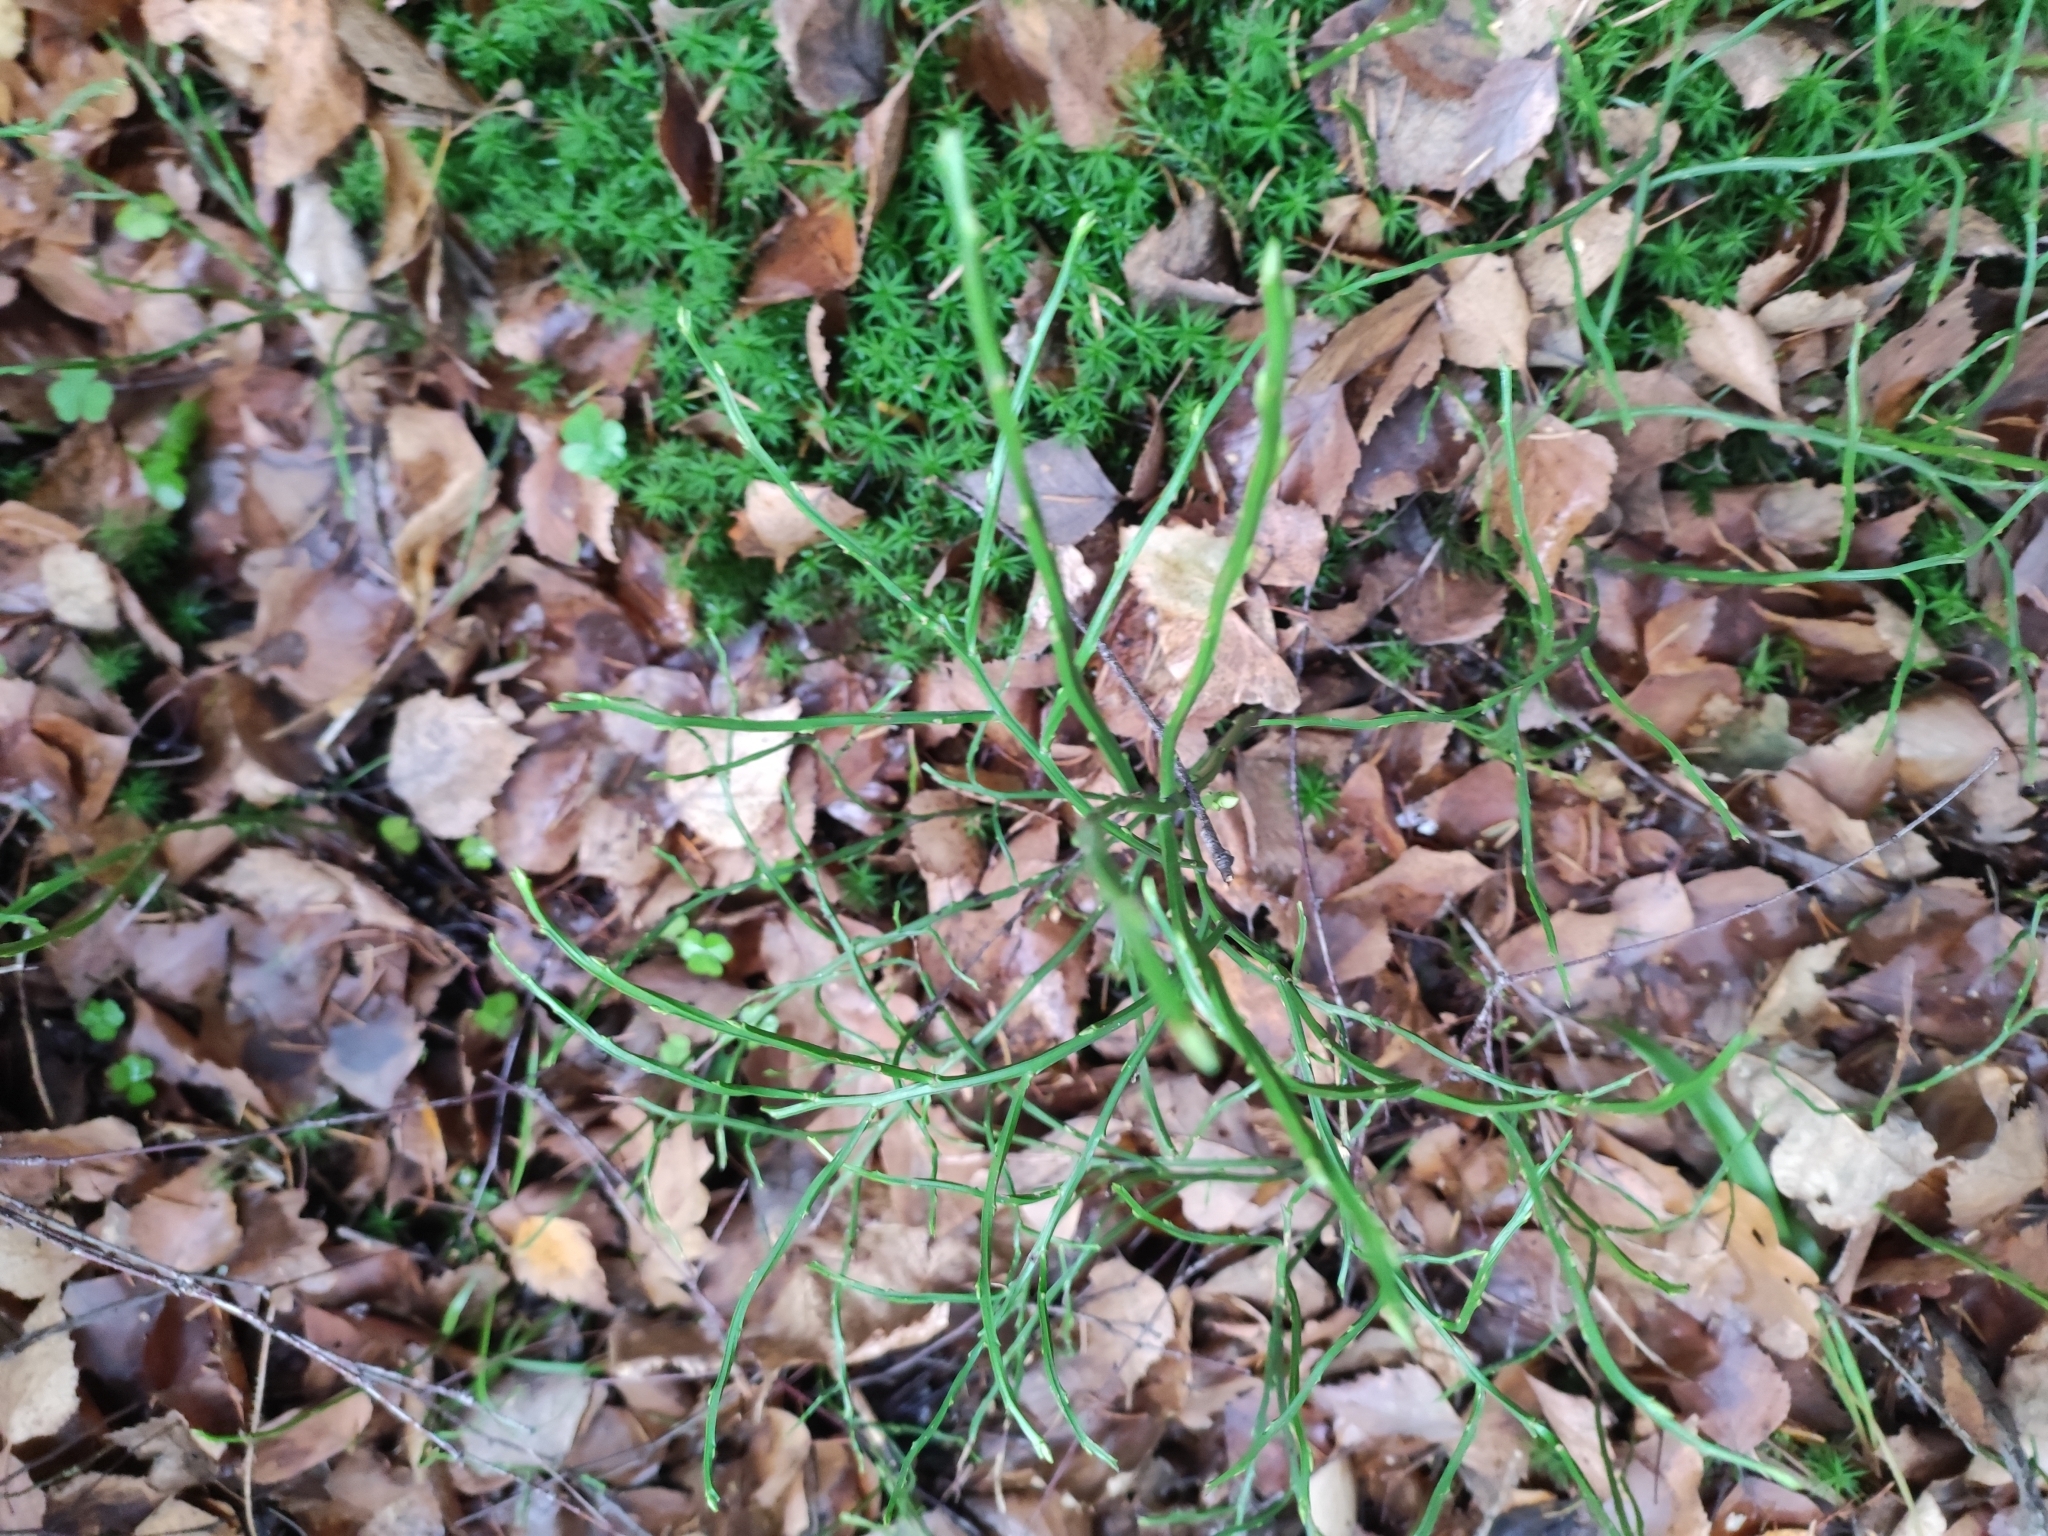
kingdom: Plantae
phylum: Tracheophyta
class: Magnoliopsida
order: Ericales
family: Ericaceae
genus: Vaccinium
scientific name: Vaccinium myrtillus
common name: Bilberry
